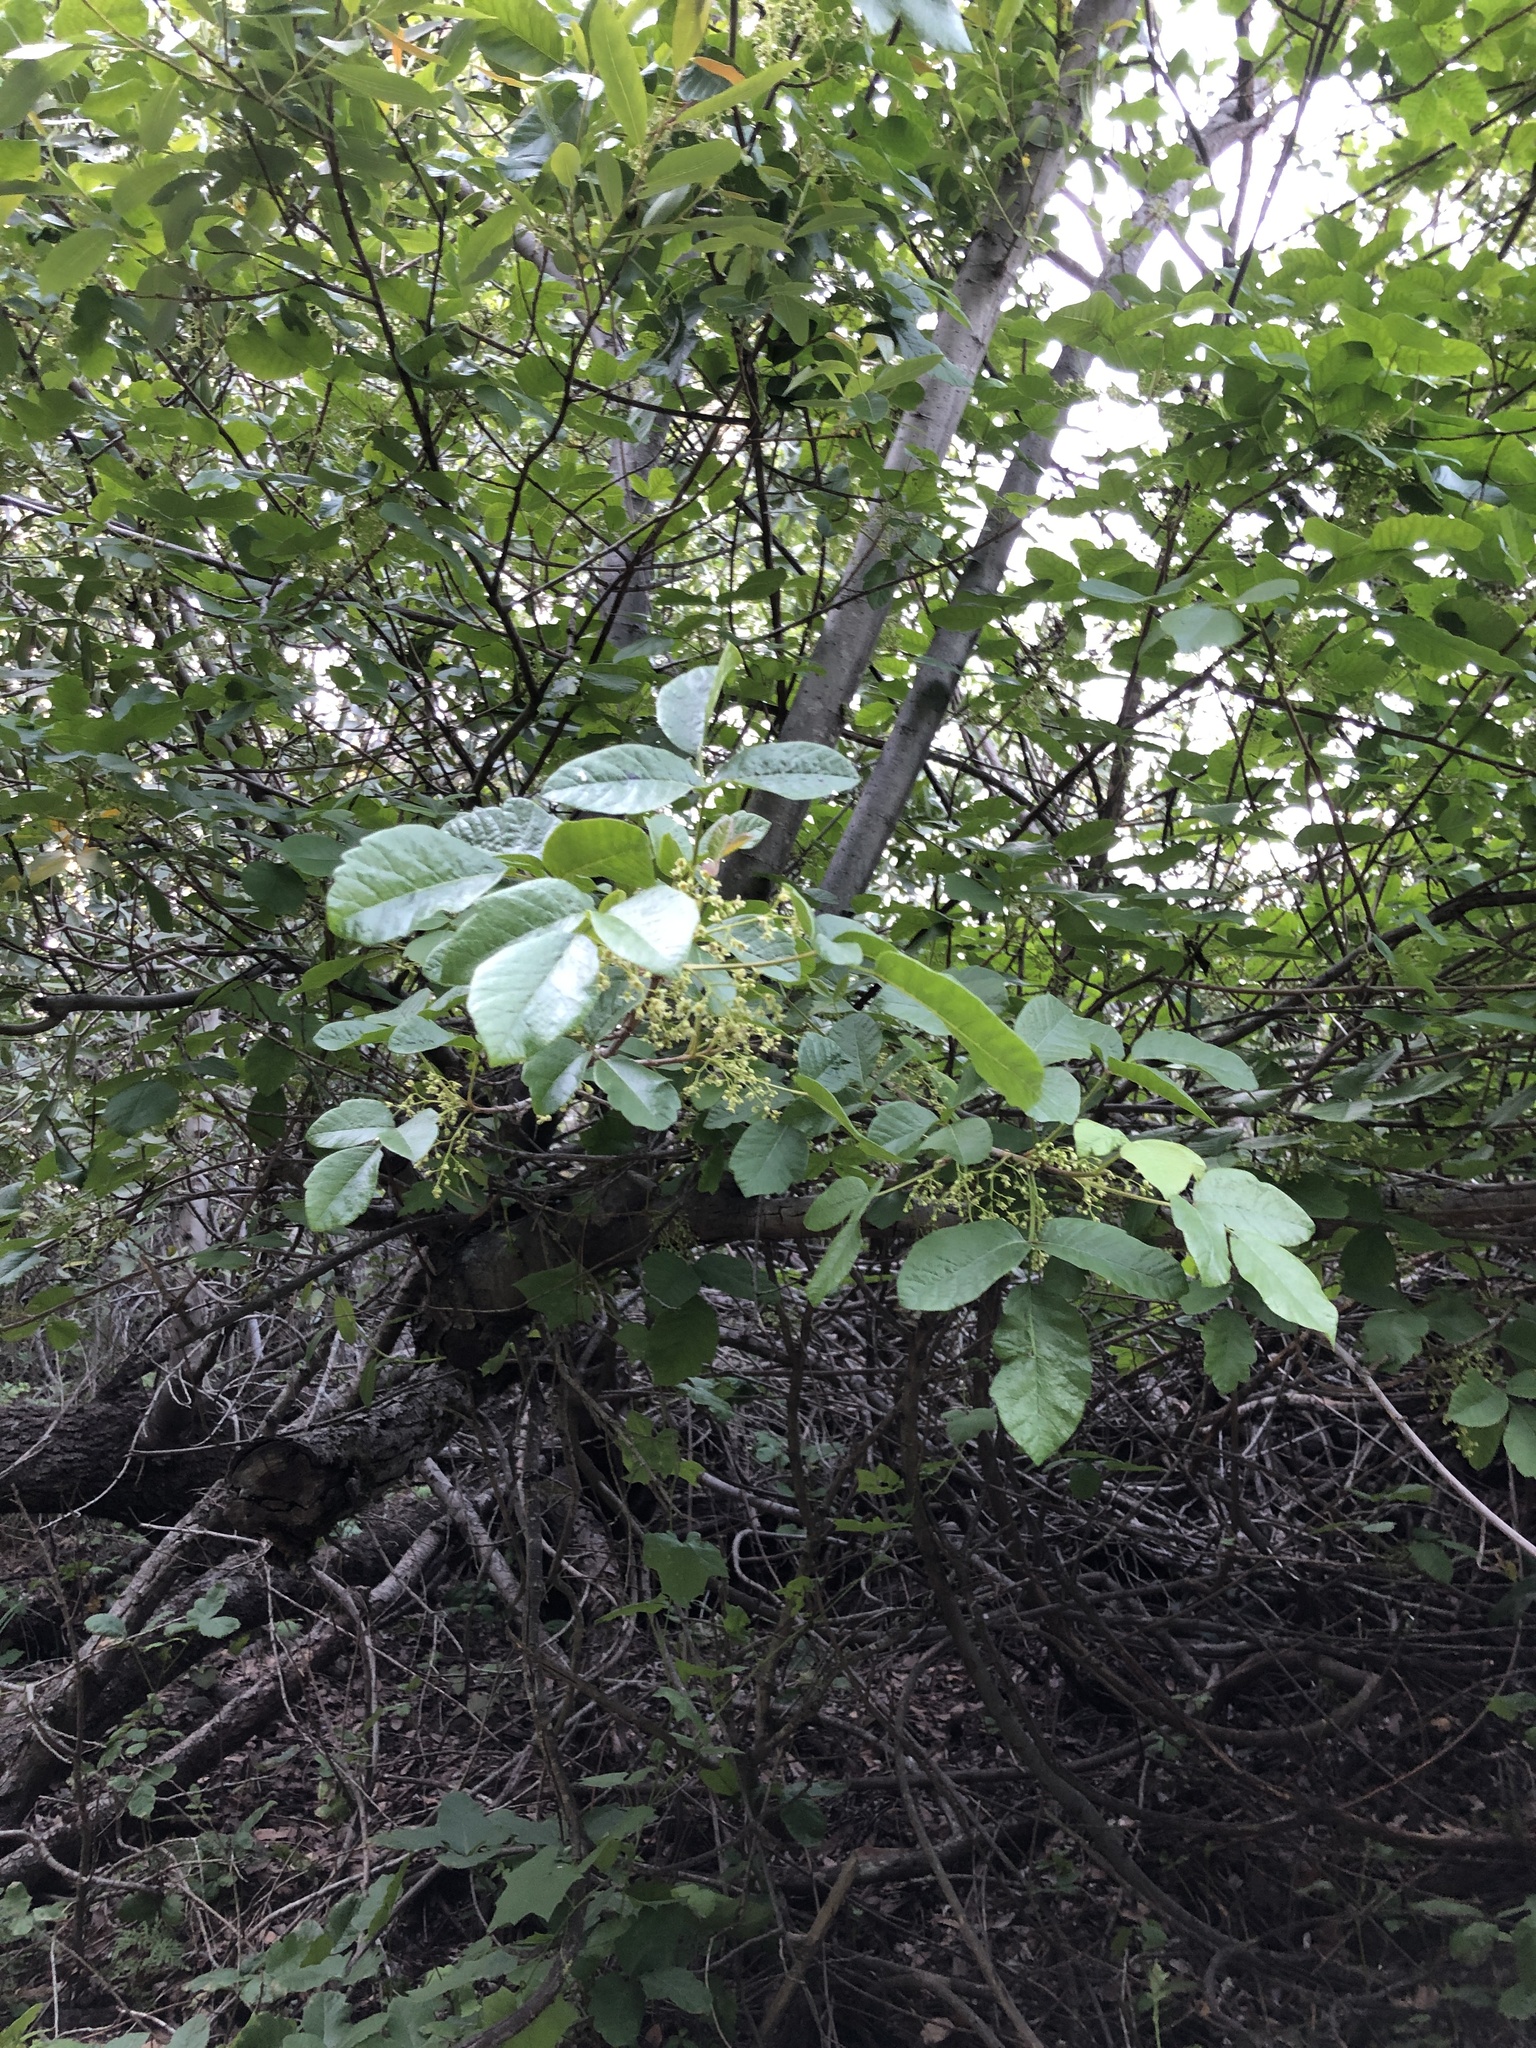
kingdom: Plantae
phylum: Tracheophyta
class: Magnoliopsida
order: Sapindales
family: Anacardiaceae
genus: Toxicodendron
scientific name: Toxicodendron diversilobum
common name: Pacific poison-oak
